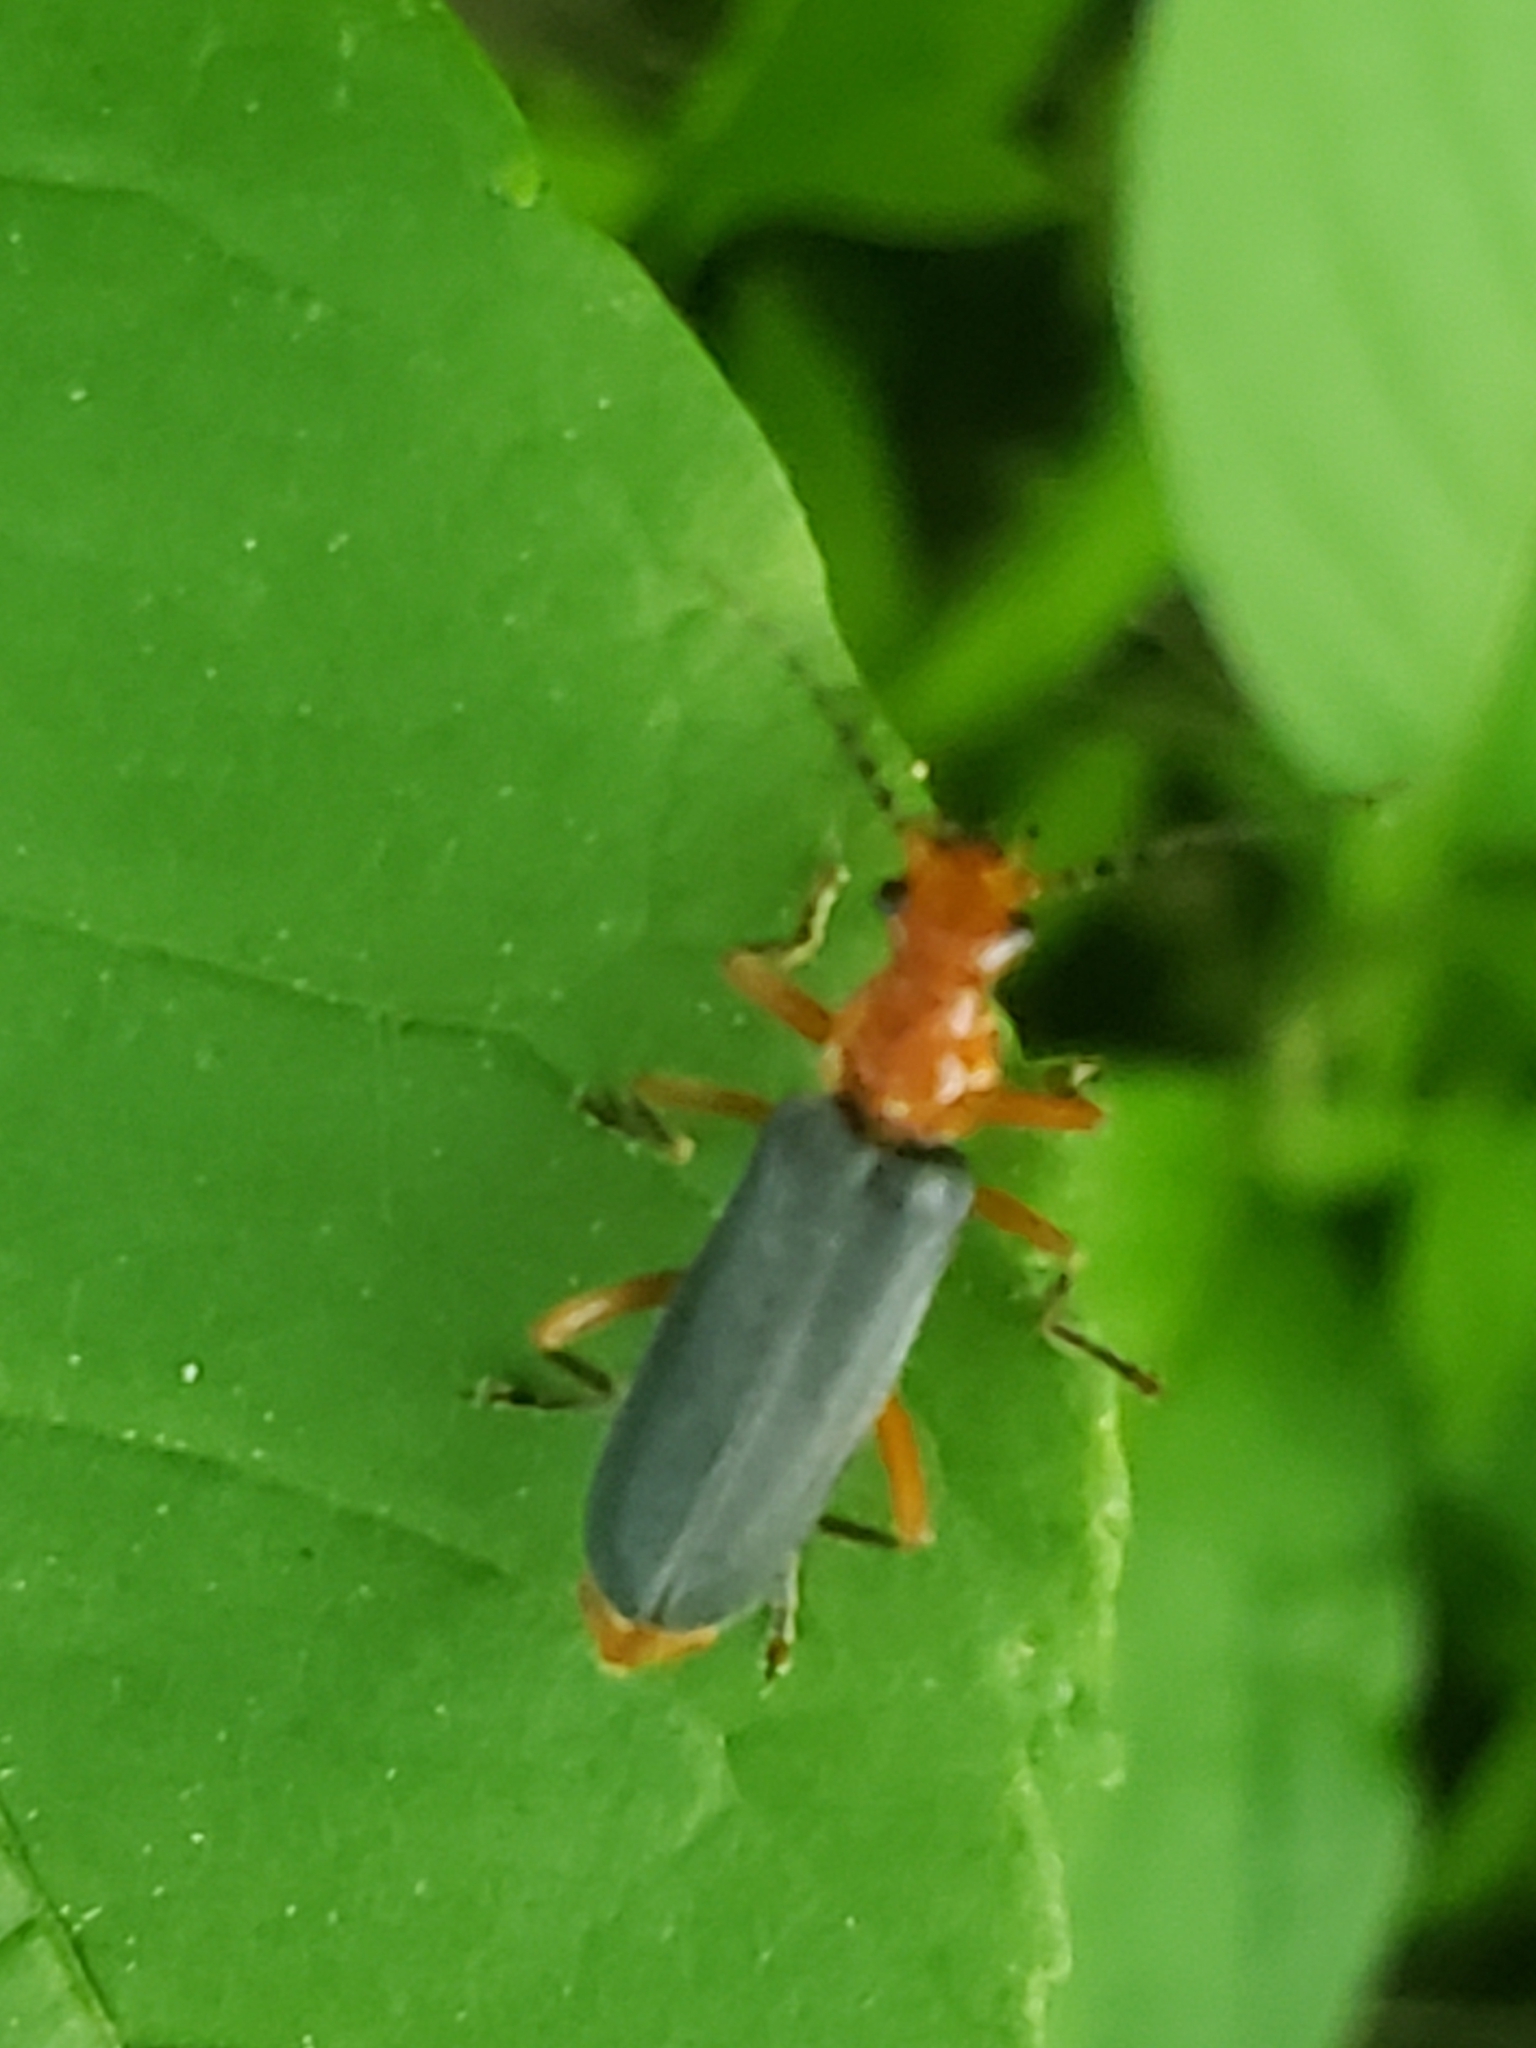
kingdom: Animalia
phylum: Arthropoda
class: Insecta
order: Coleoptera
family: Cantharidae
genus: Podabrus
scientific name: Podabrus tomentosus
